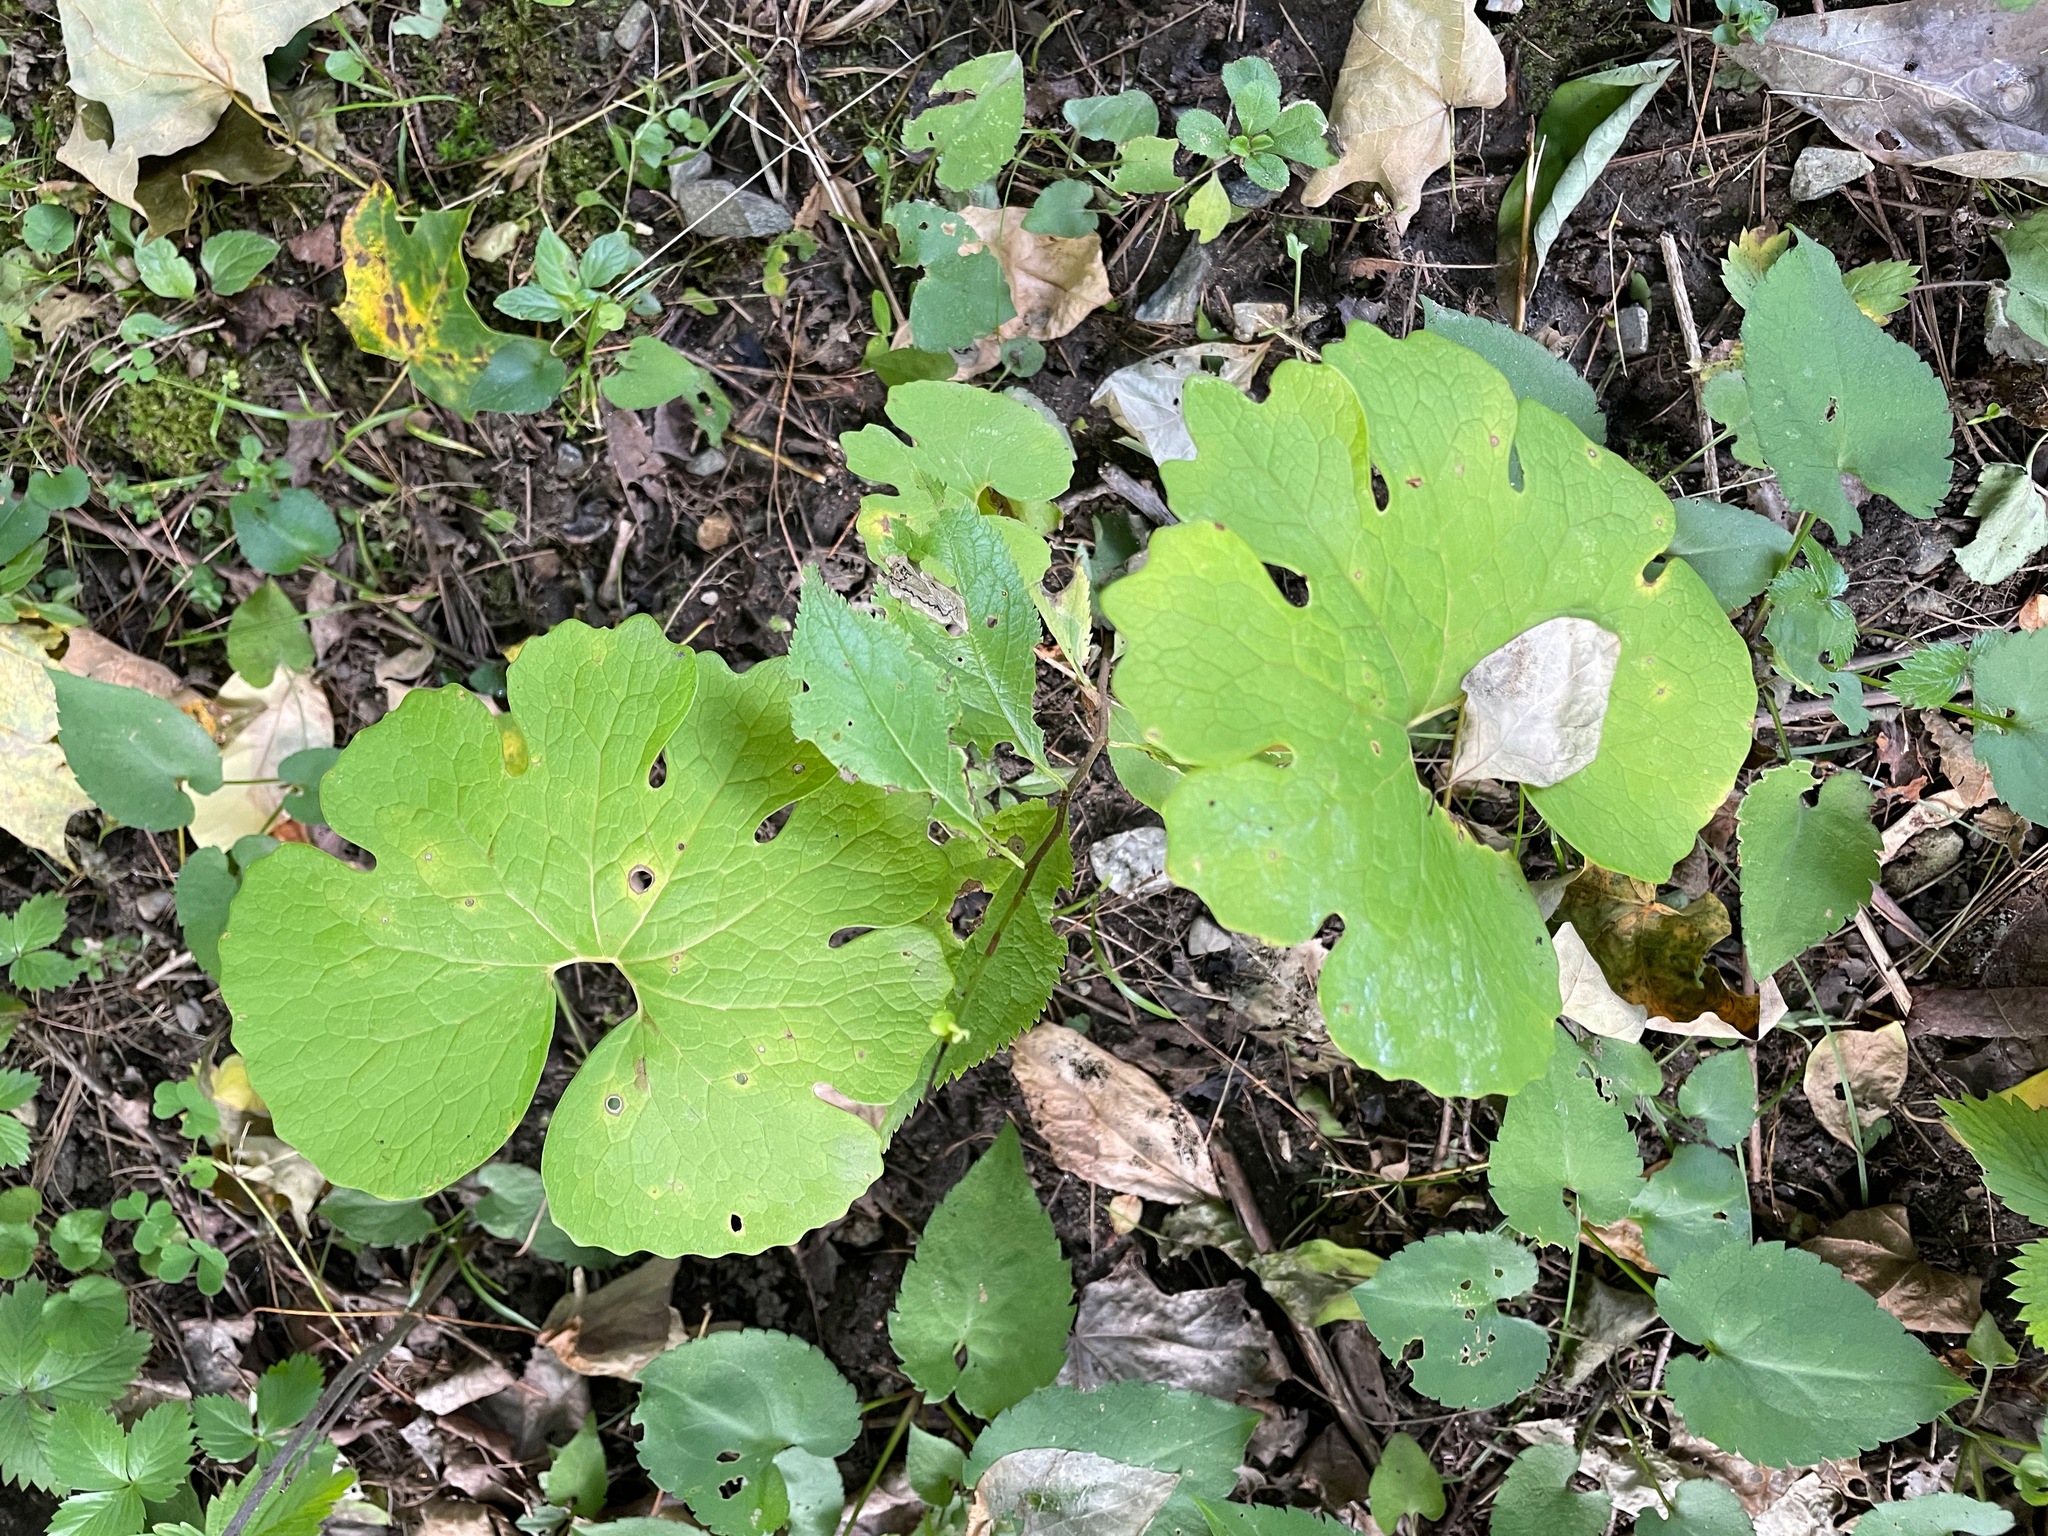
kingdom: Plantae
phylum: Tracheophyta
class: Magnoliopsida
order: Ranunculales
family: Papaveraceae
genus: Sanguinaria
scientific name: Sanguinaria canadensis
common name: Bloodroot
